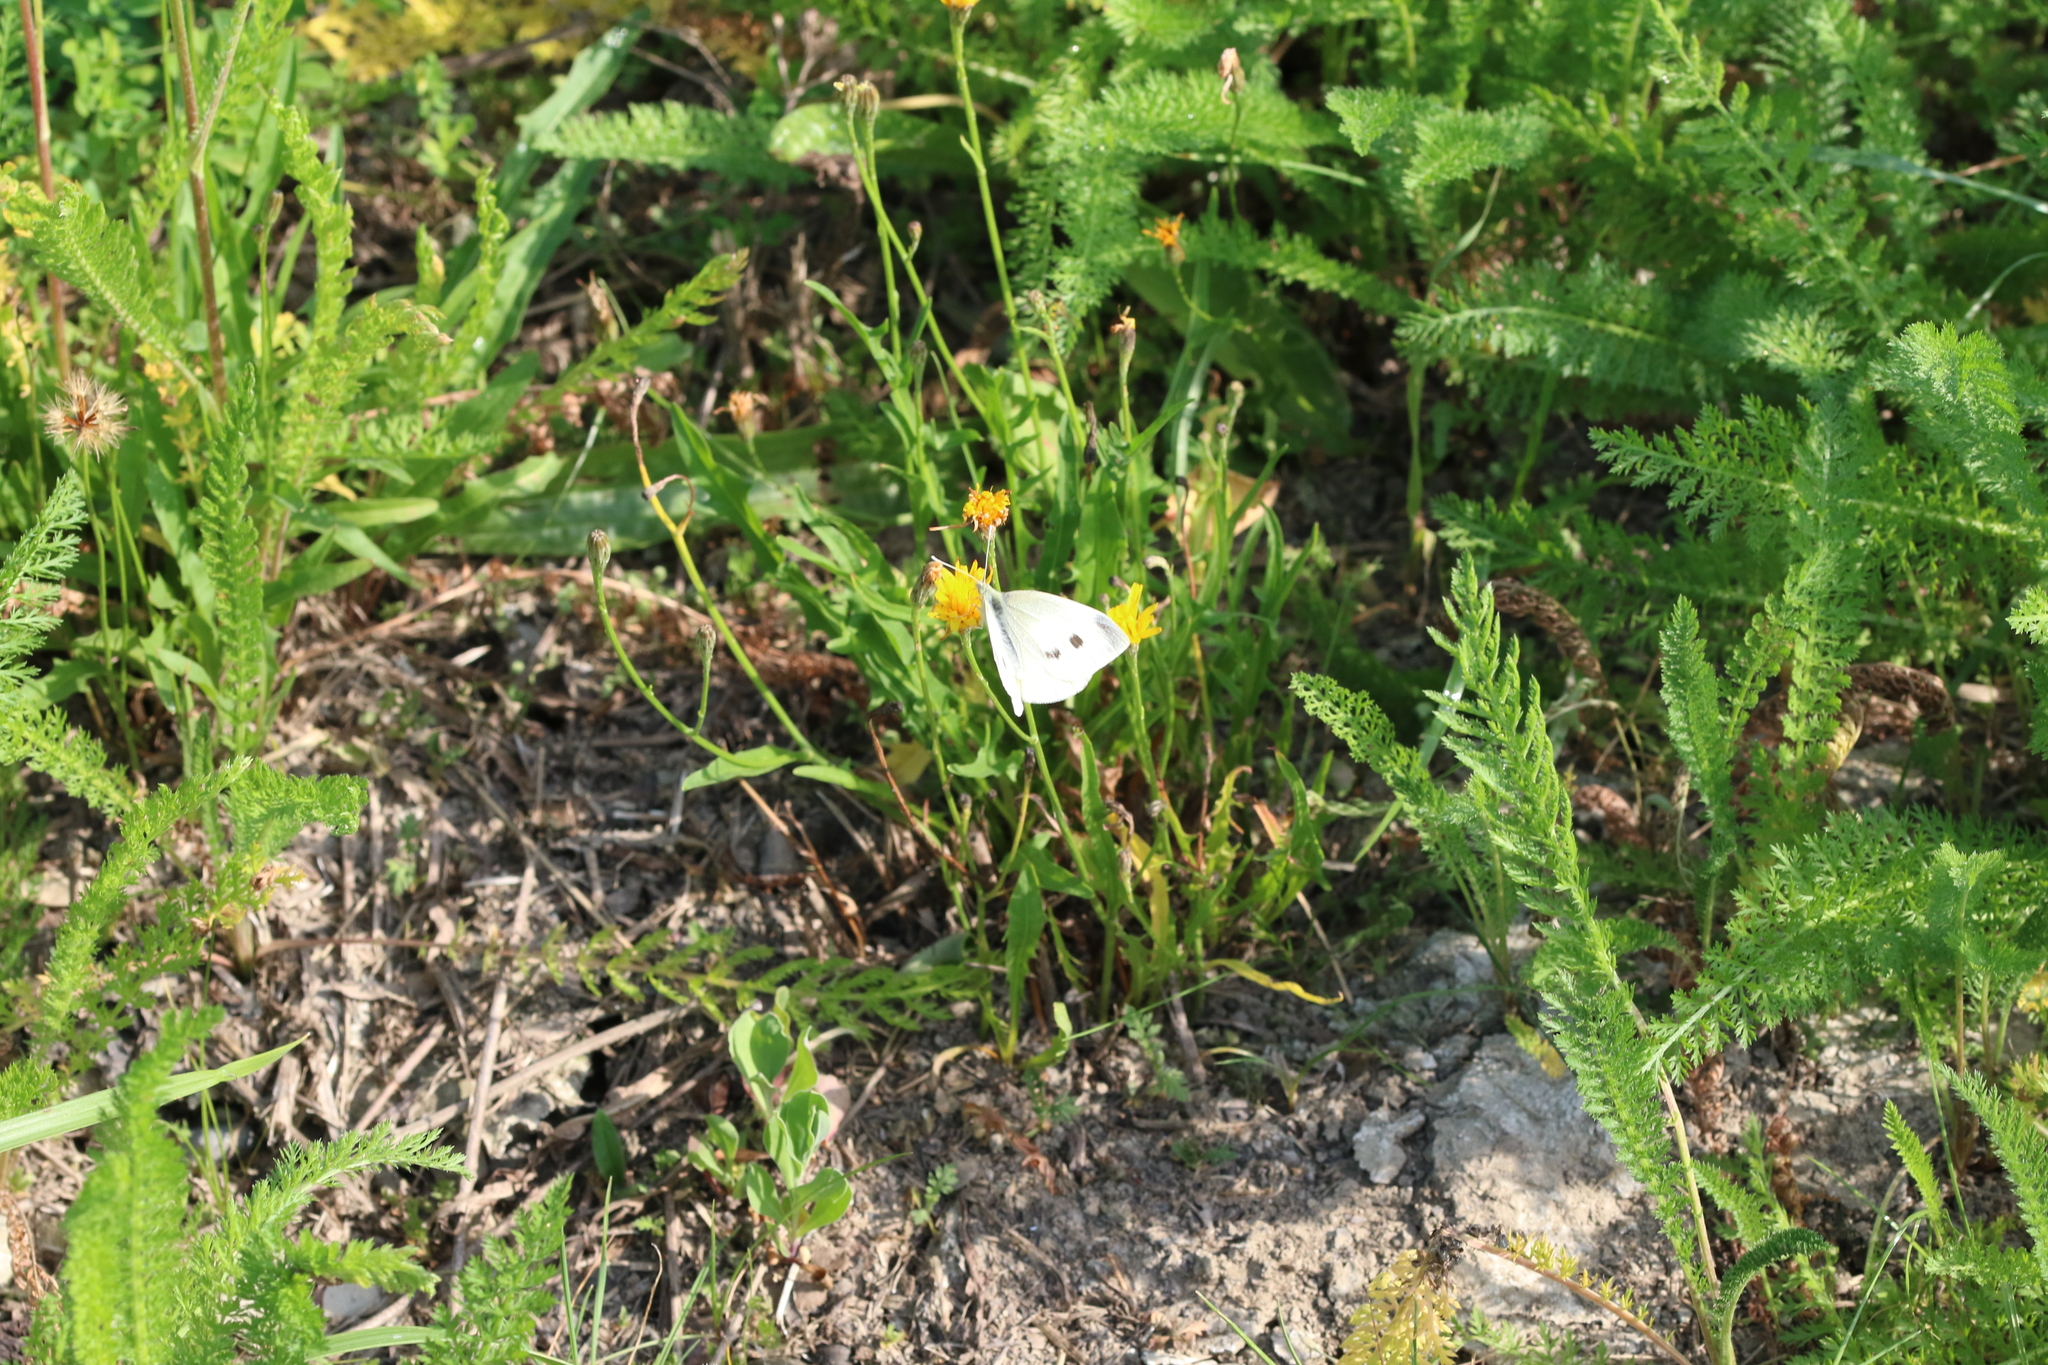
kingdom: Animalia
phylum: Arthropoda
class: Insecta
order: Lepidoptera
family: Pieridae
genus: Pieris
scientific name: Pieris rapae
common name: Small white
